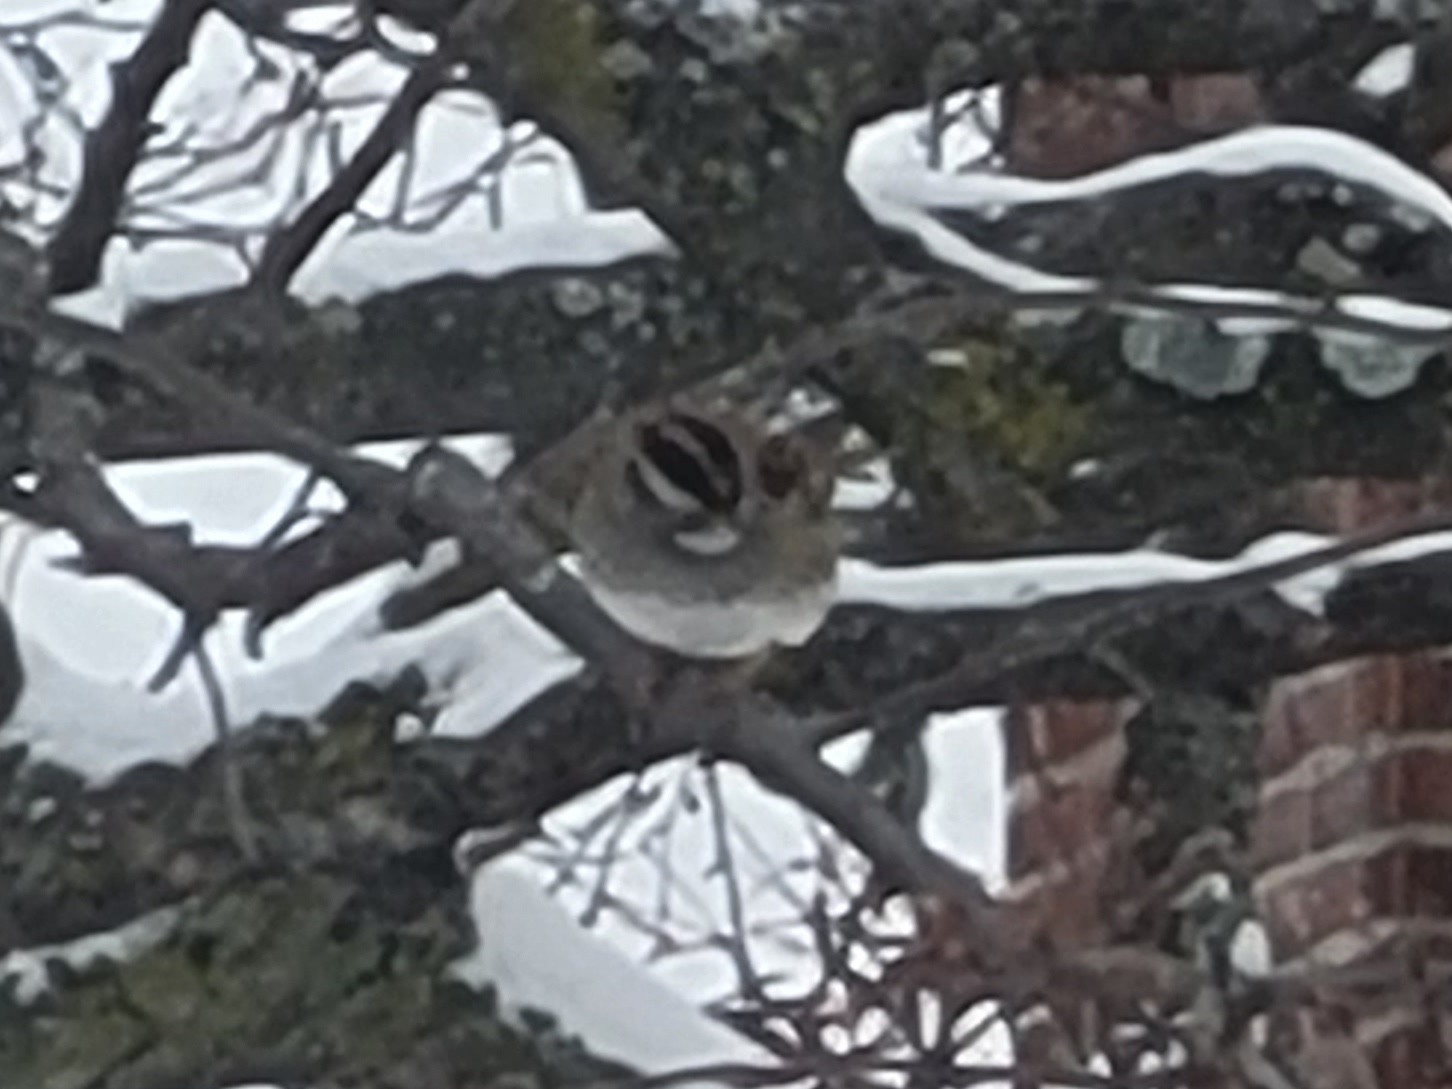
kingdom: Animalia
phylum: Chordata
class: Aves
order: Passeriformes
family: Passerellidae
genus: Zonotrichia
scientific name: Zonotrichia albicollis
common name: White-throated sparrow
